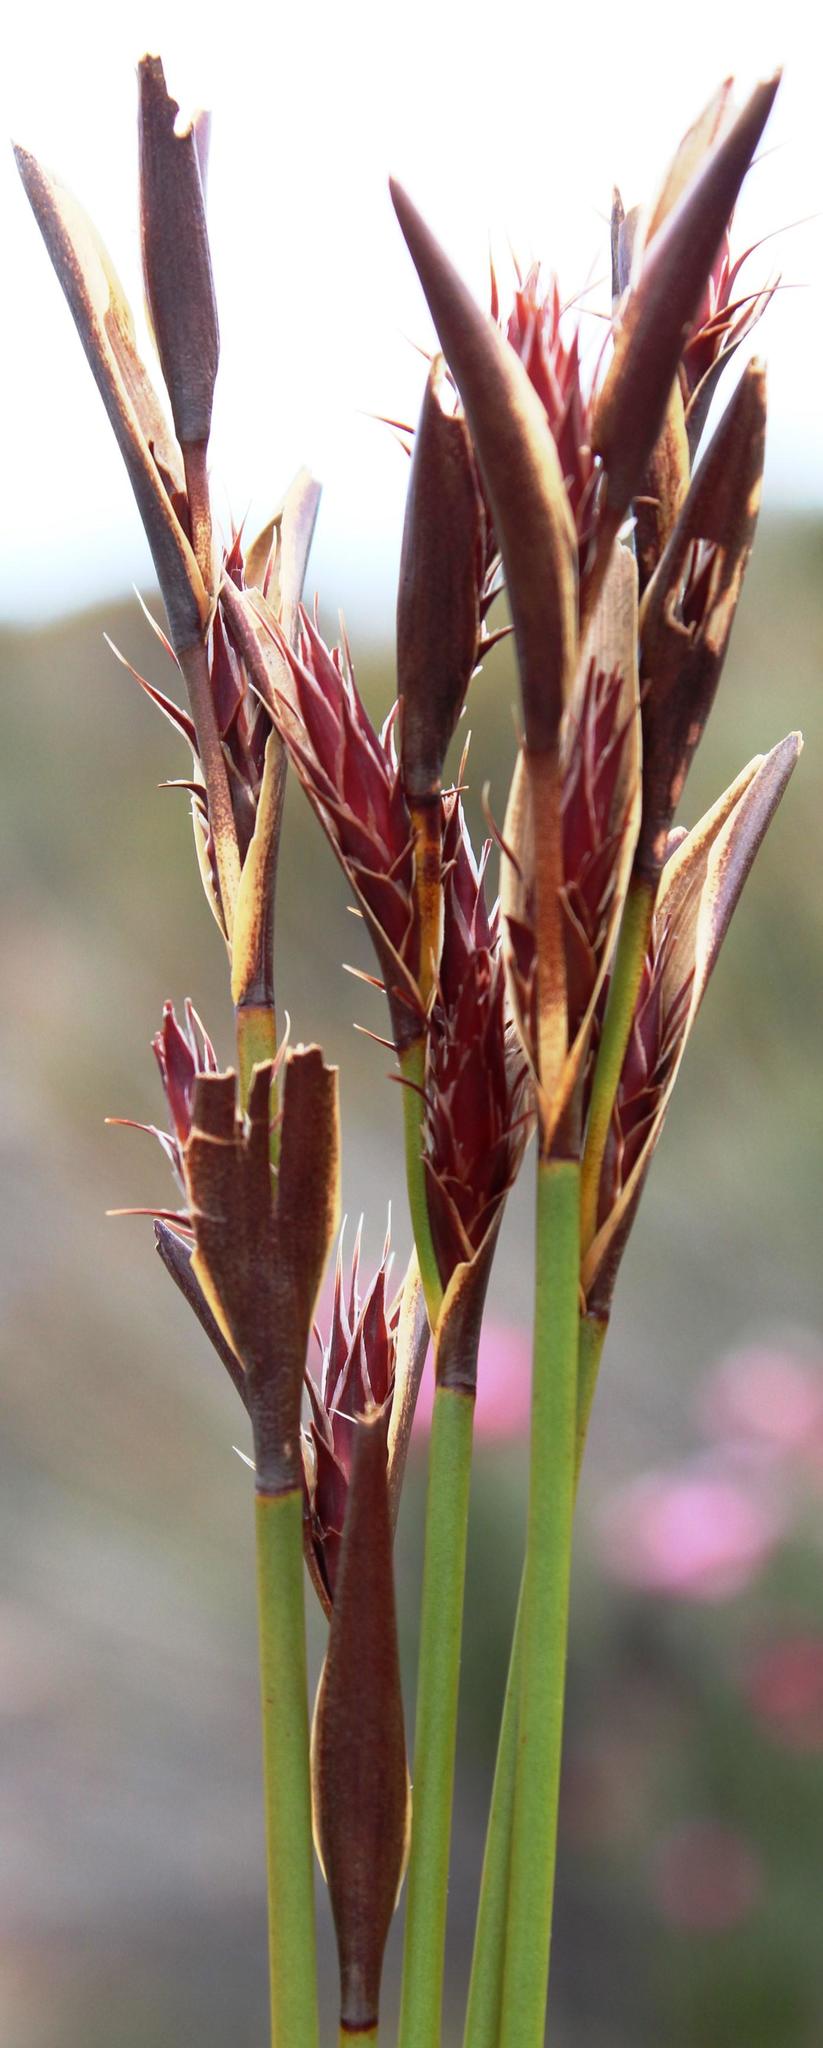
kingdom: Plantae
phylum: Tracheophyta
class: Liliopsida
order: Poales
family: Restionaceae
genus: Hypodiscus
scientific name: Hypodiscus aristatus
